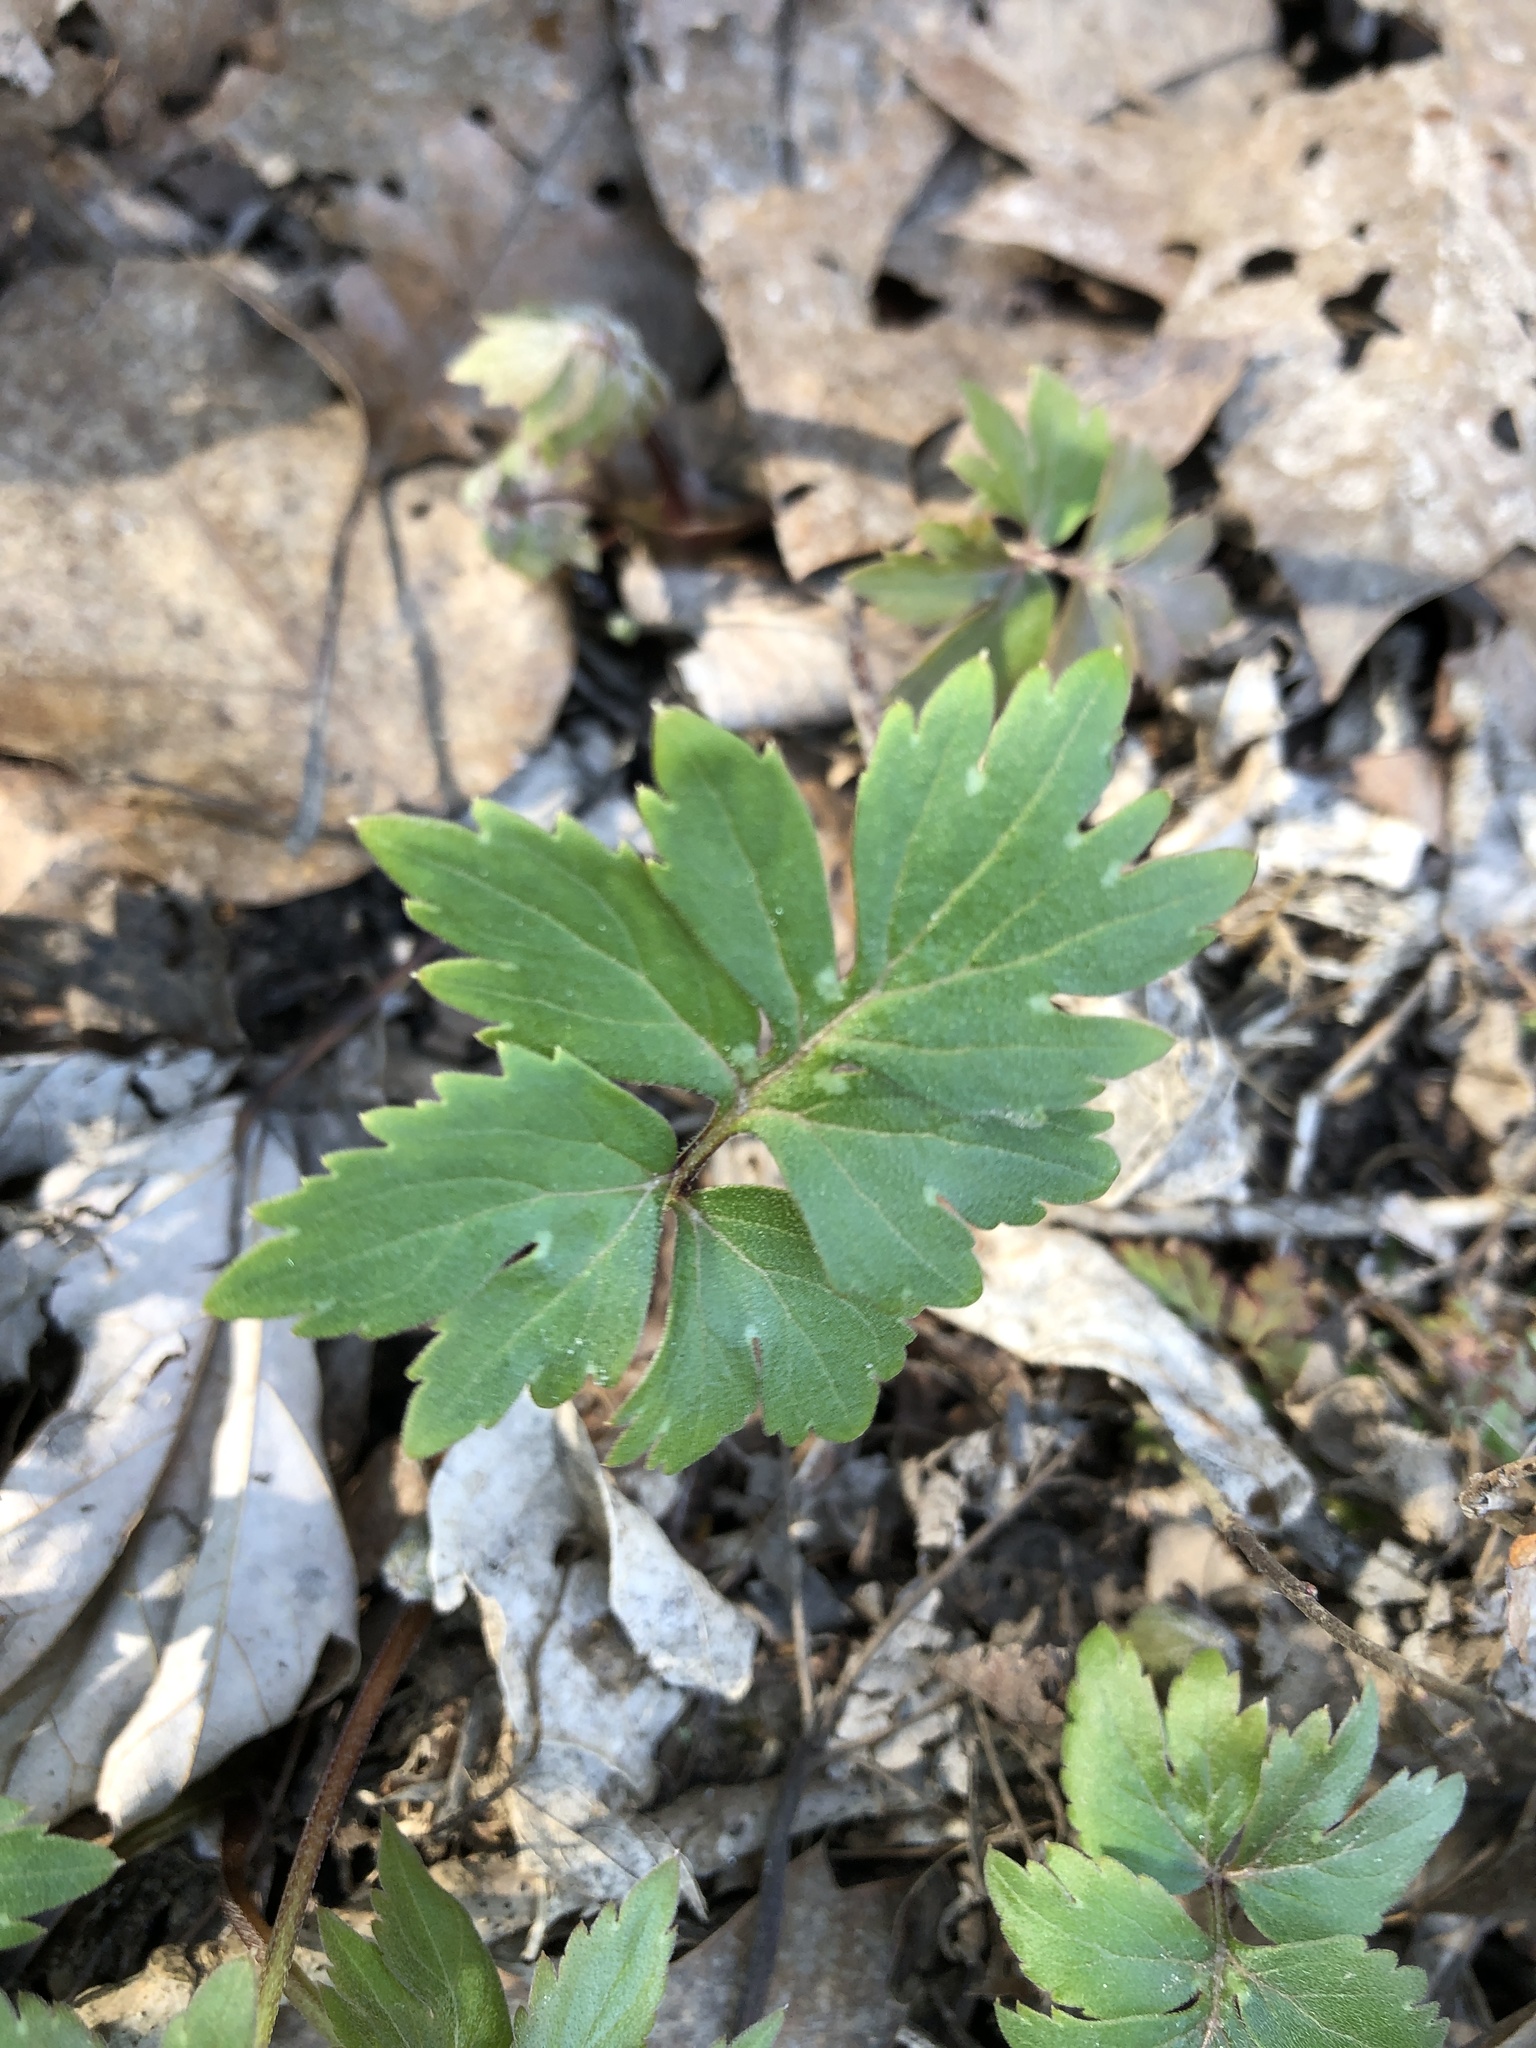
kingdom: Plantae
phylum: Tracheophyta
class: Magnoliopsida
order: Boraginales
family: Hydrophyllaceae
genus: Hydrophyllum
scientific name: Hydrophyllum virginianum
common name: Virginia waterleaf
